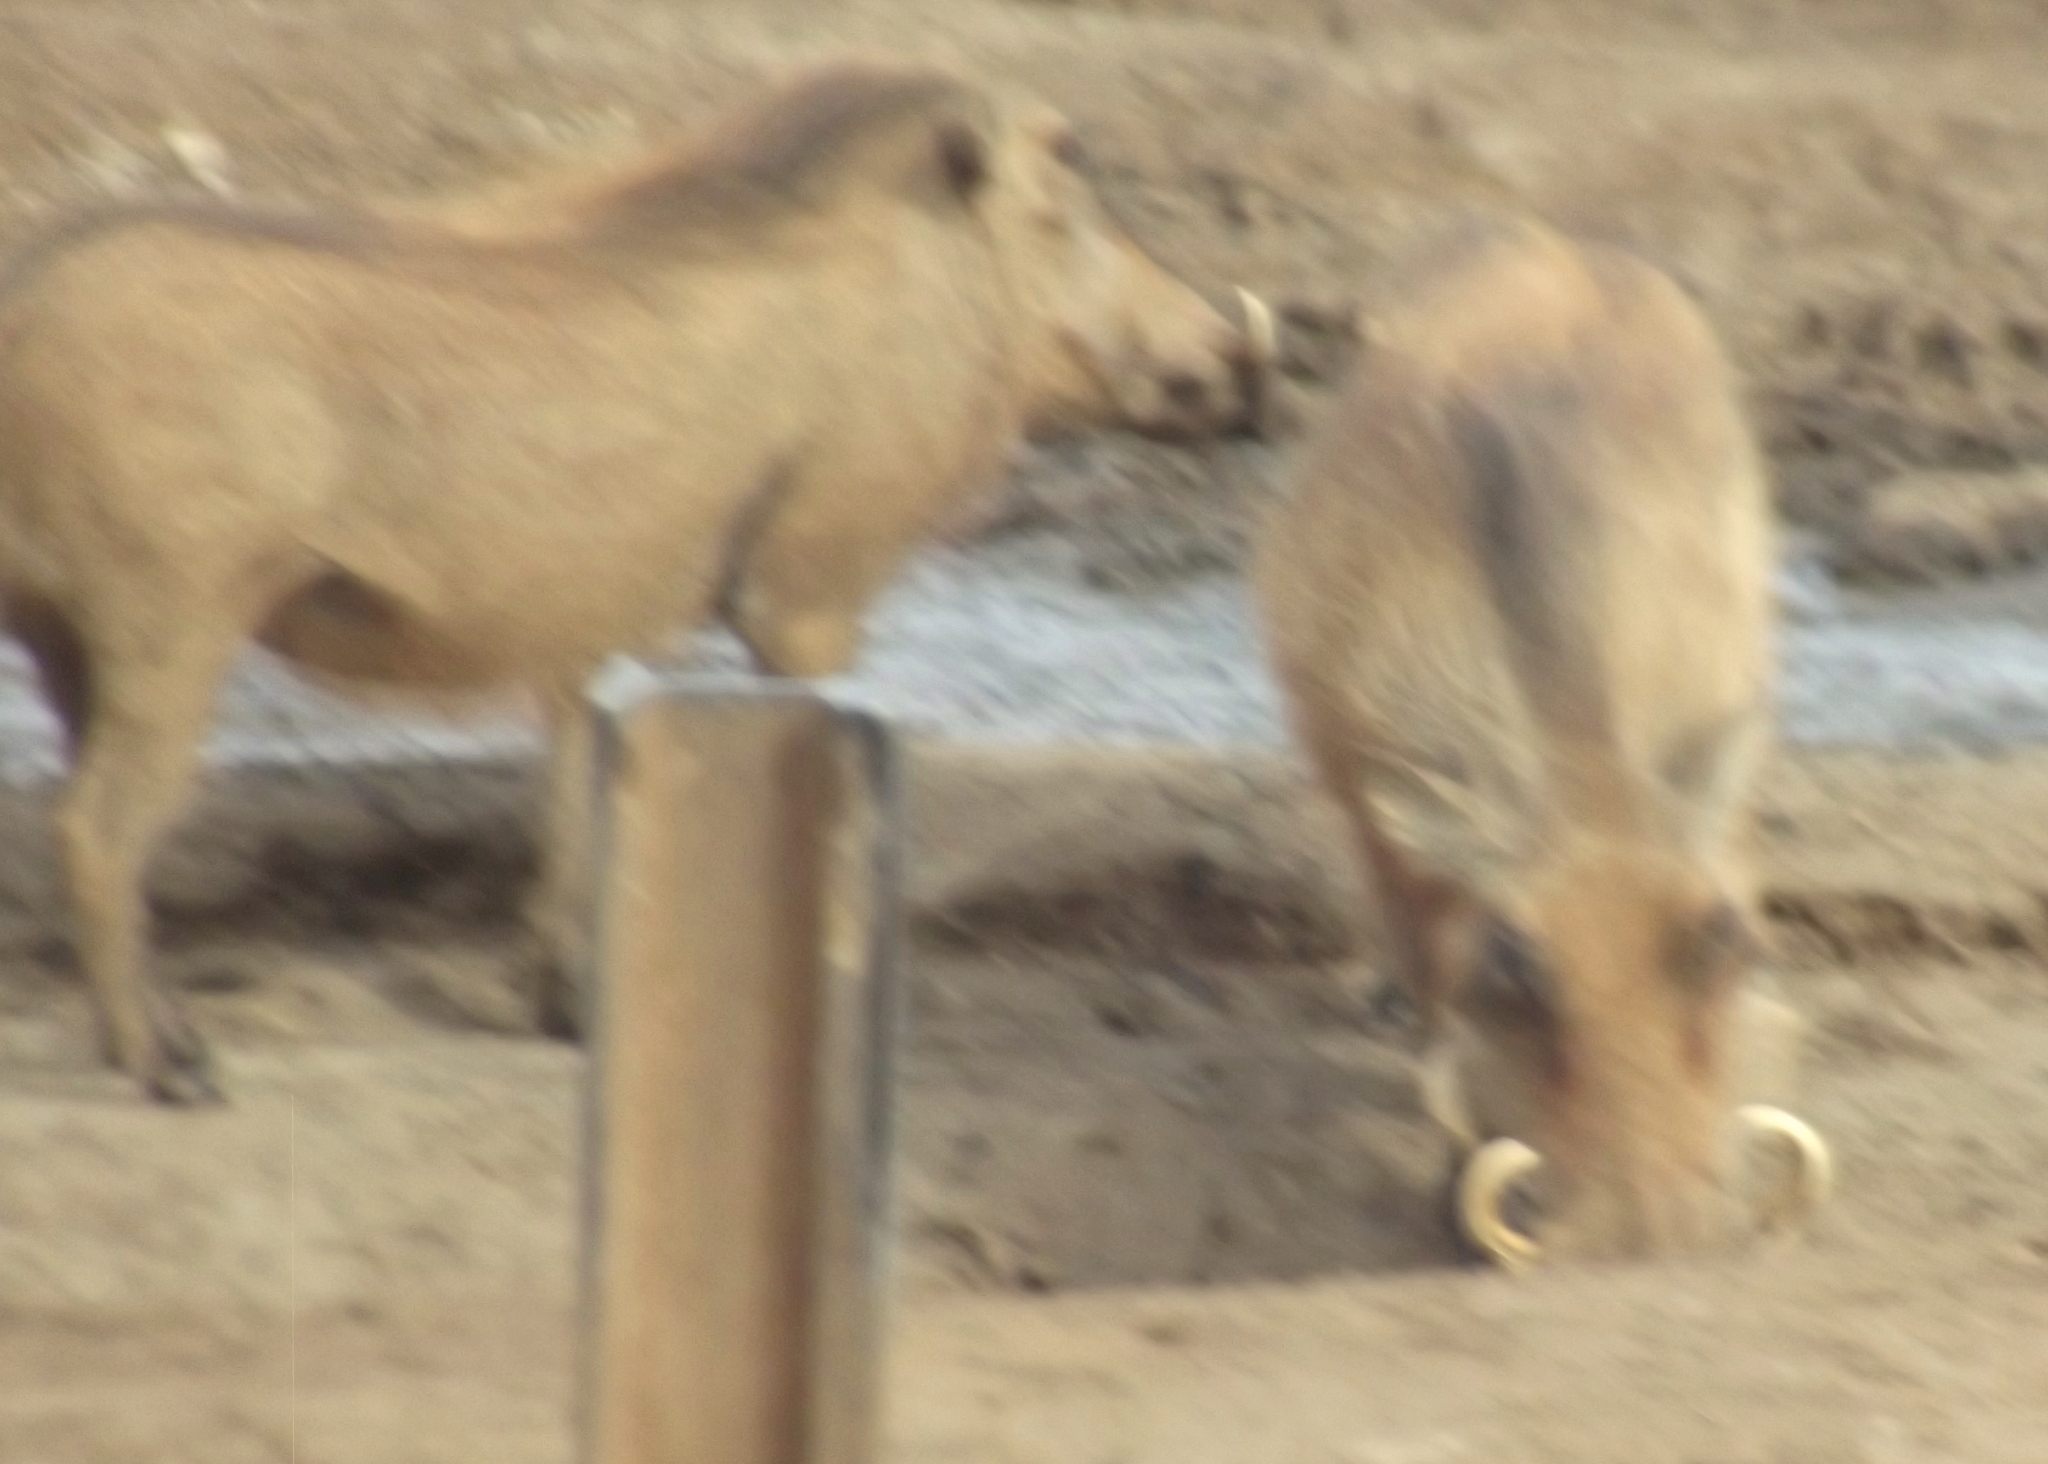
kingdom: Animalia
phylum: Chordata
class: Mammalia
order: Artiodactyla
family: Suidae
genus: Phacochoerus
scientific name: Phacochoerus africanus
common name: Common warthog
